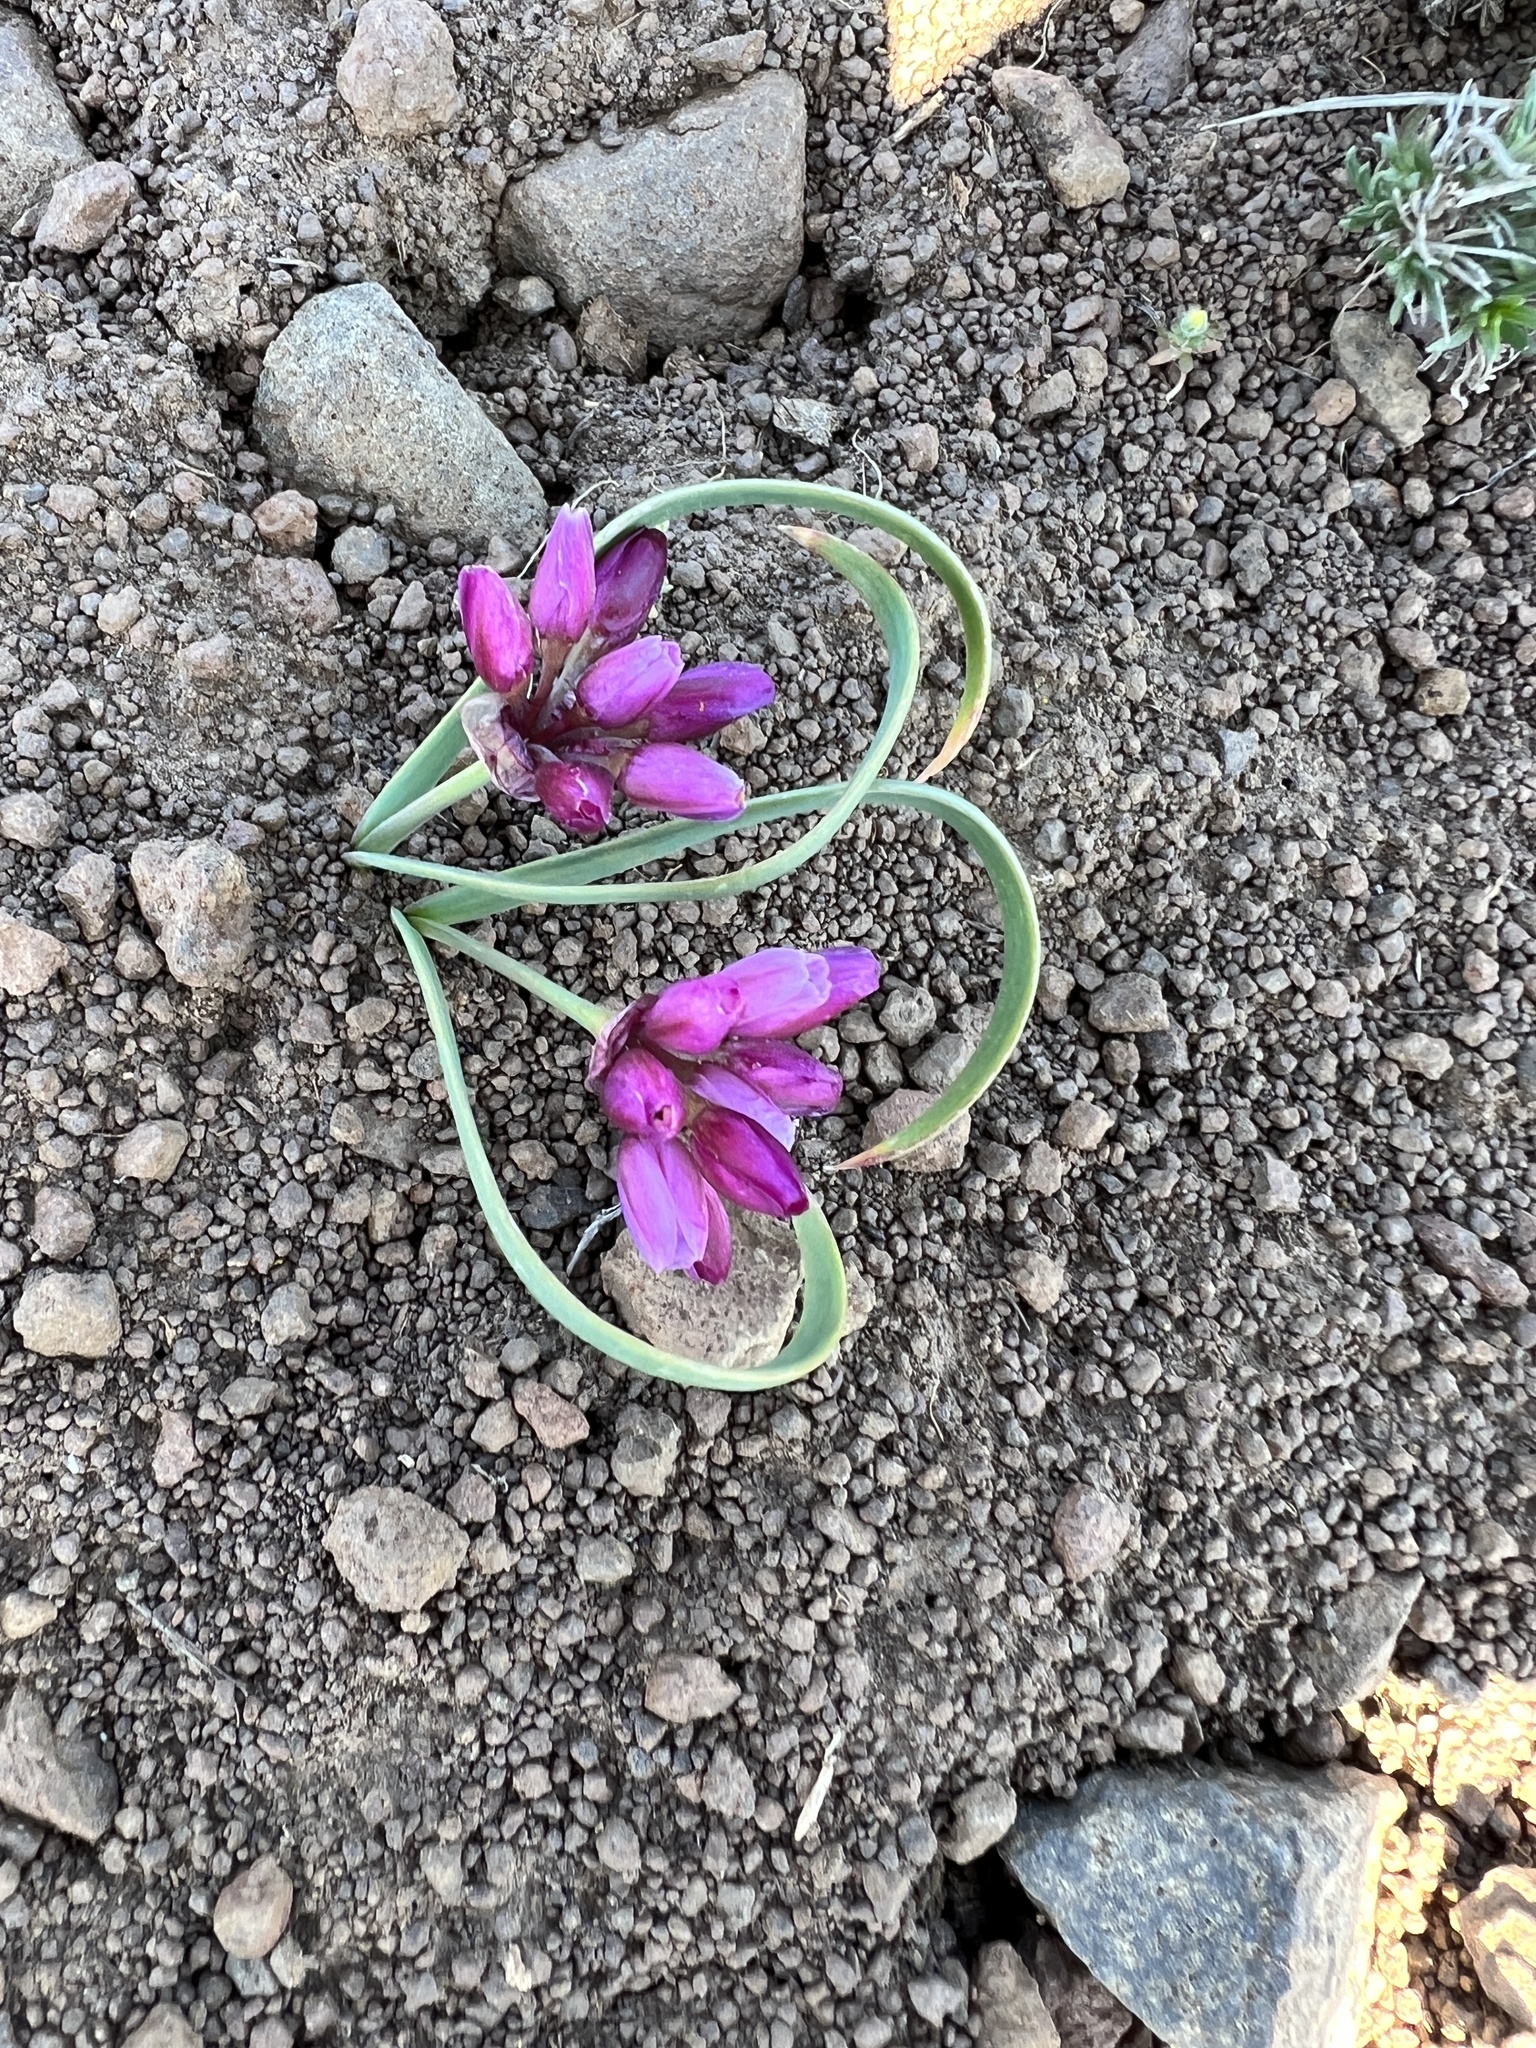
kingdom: Plantae
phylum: Tracheophyta
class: Liliopsida
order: Asparagales
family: Amaryllidaceae
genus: Allium
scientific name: Allium scilloides
